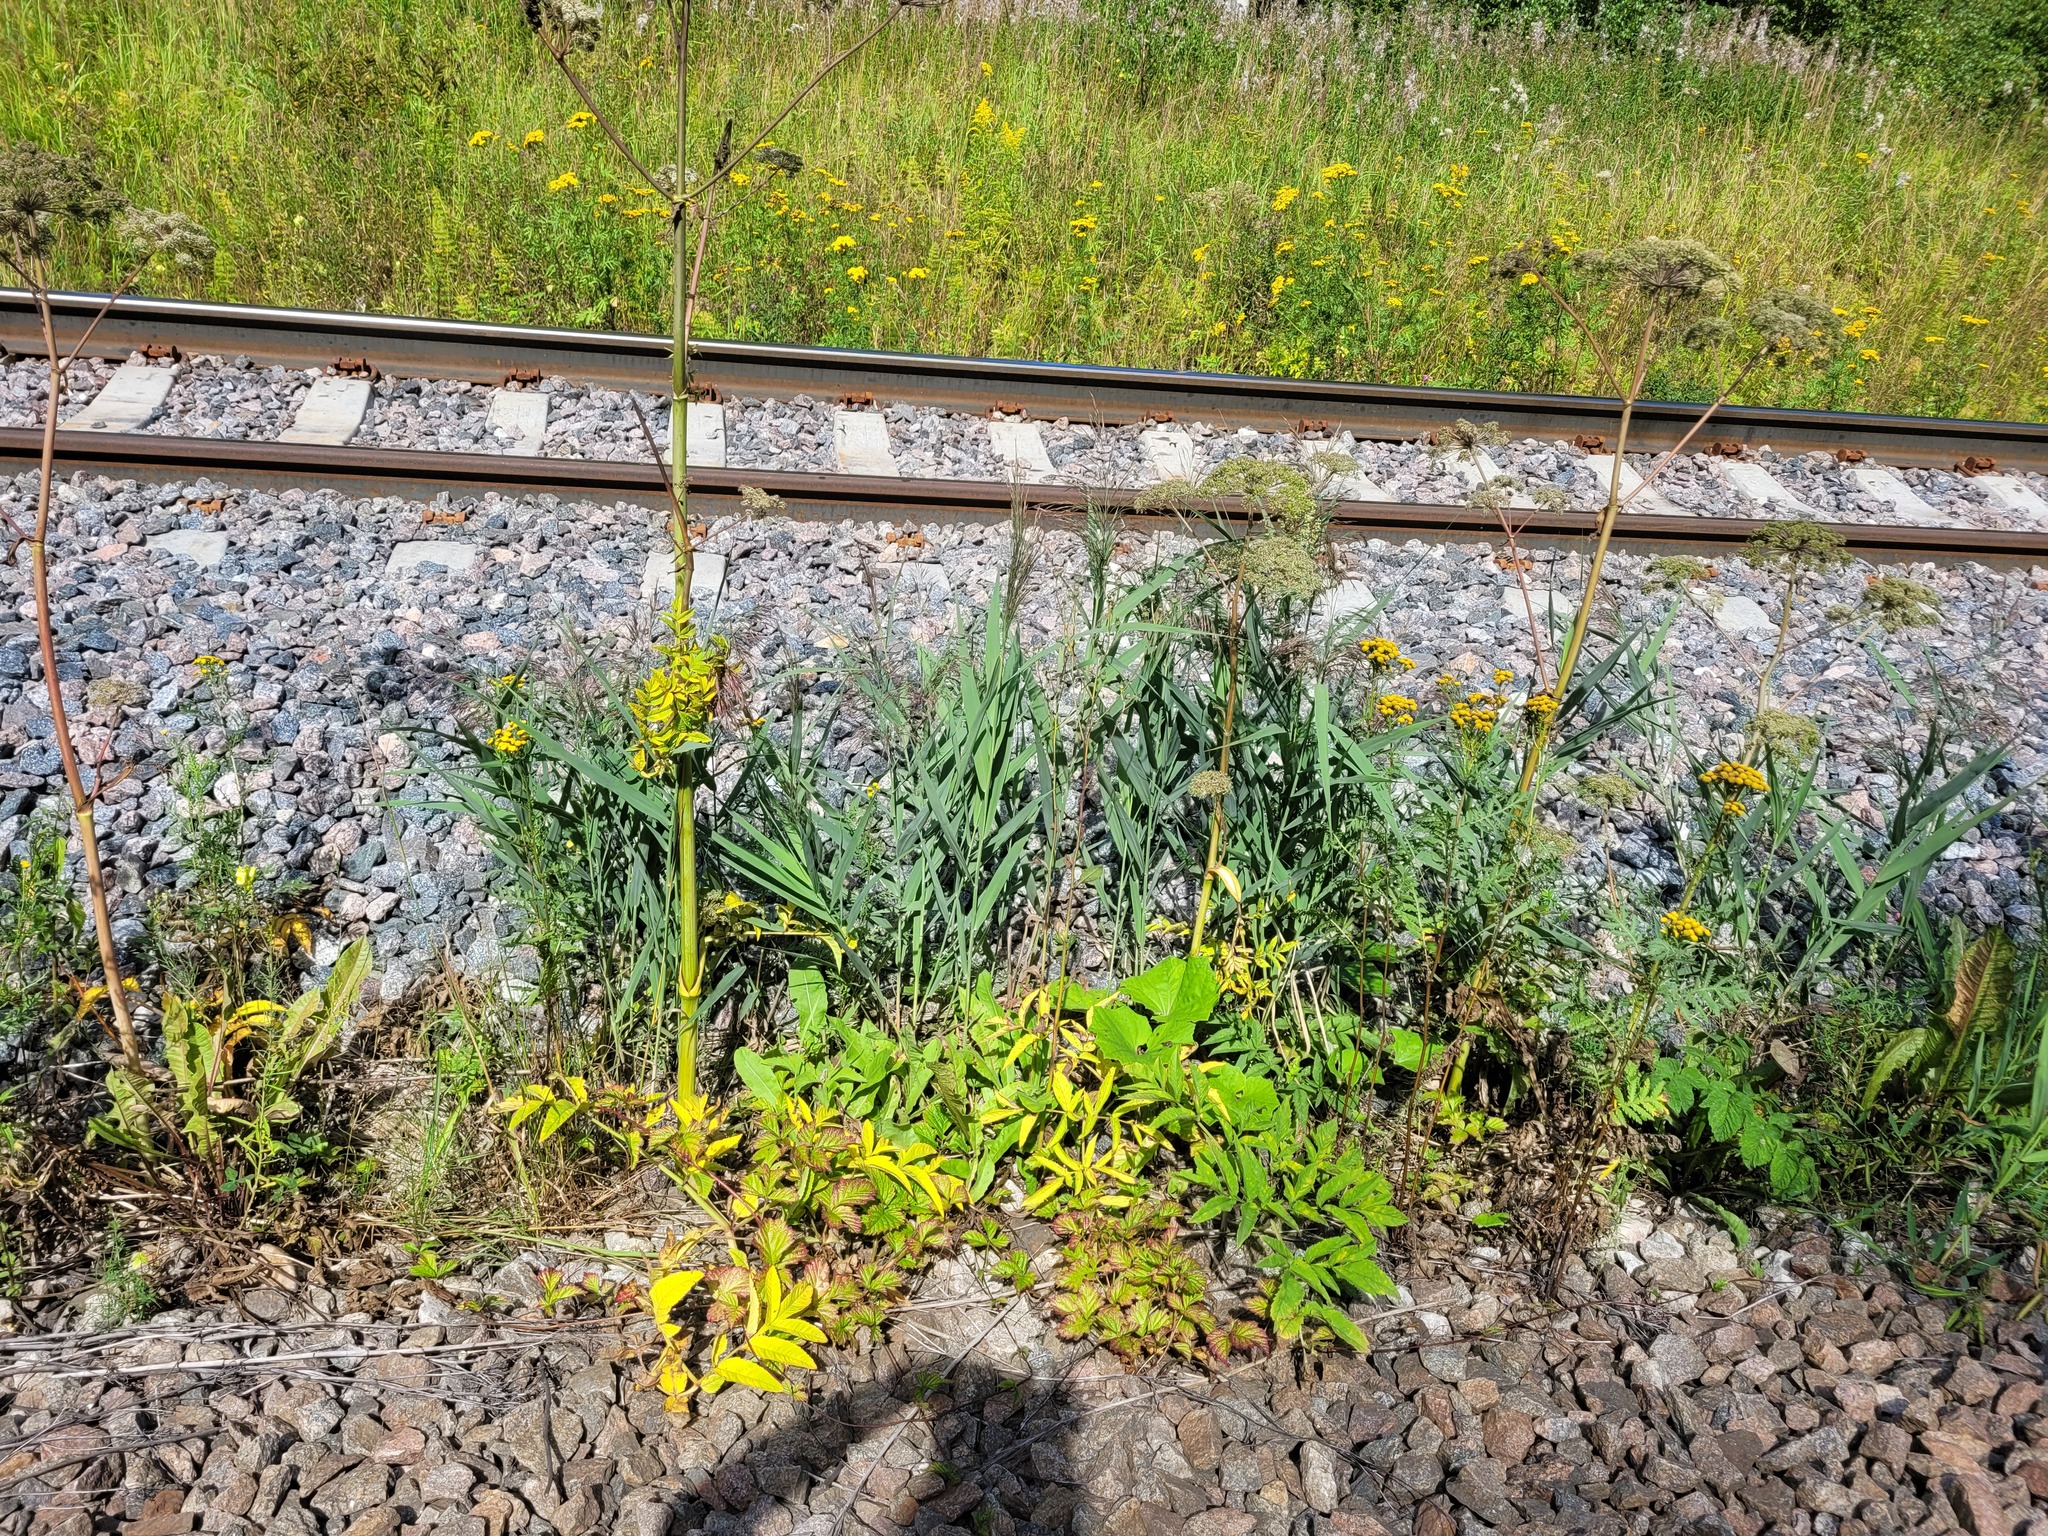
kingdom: Plantae
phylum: Tracheophyta
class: Liliopsida
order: Poales
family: Poaceae
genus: Phragmites
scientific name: Phragmites australis
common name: Common reed
